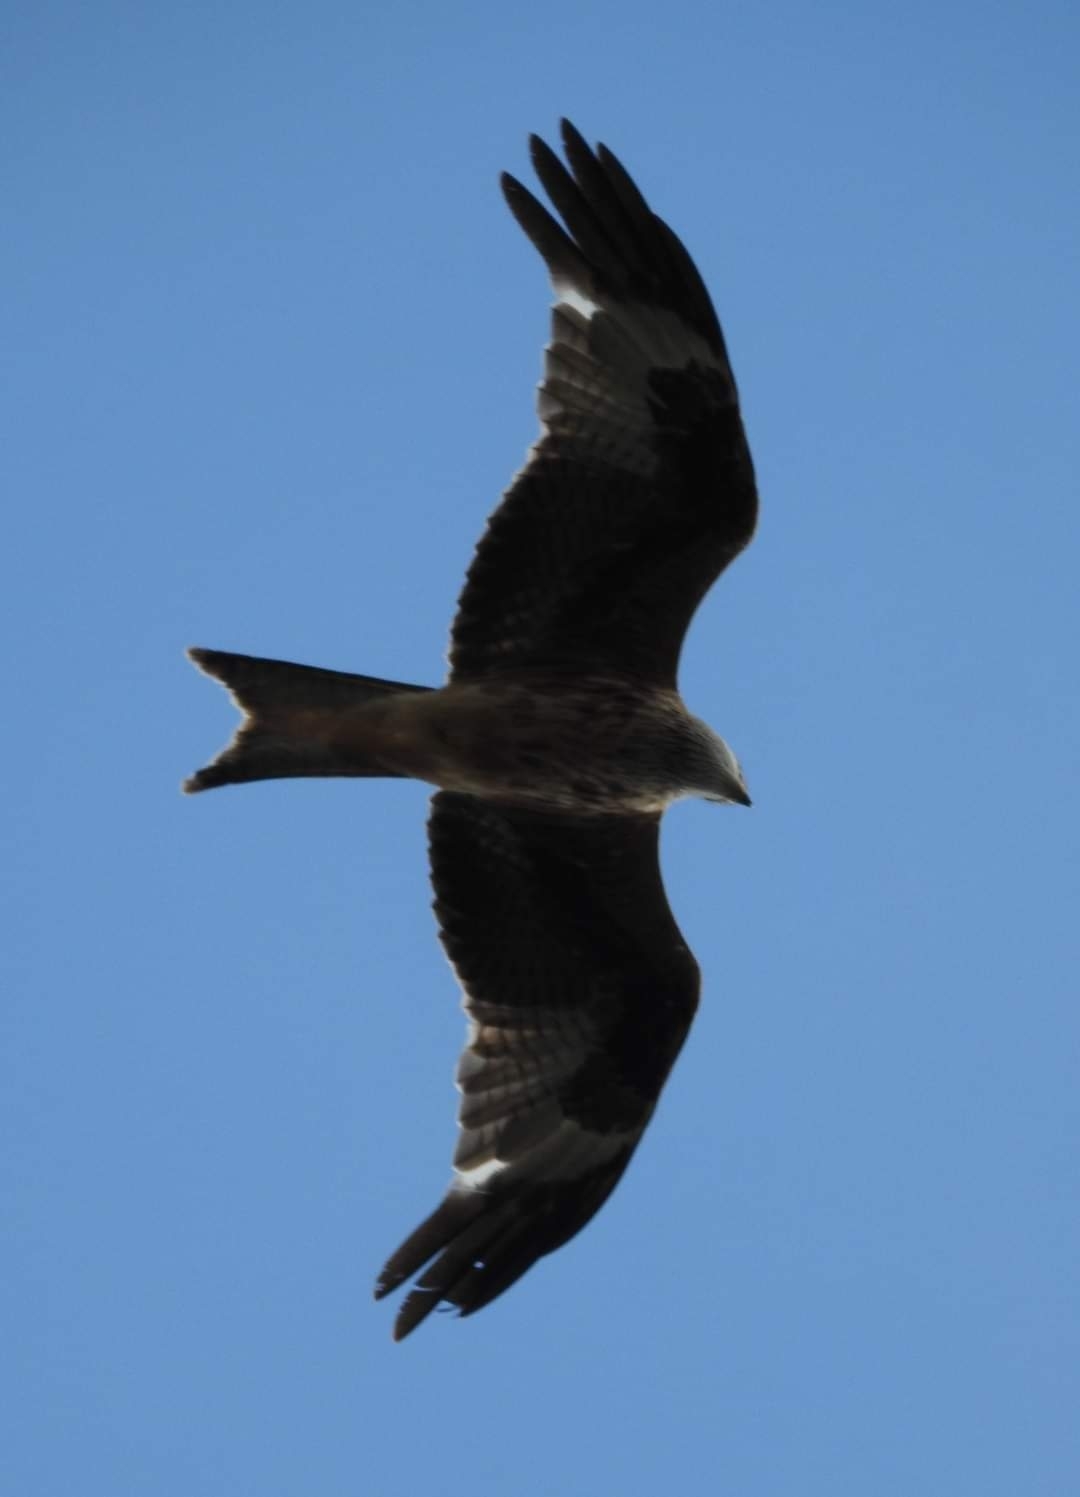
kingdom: Animalia
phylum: Chordata
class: Aves
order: Accipitriformes
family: Accipitridae
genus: Milvus
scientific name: Milvus milvus
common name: Red kite
